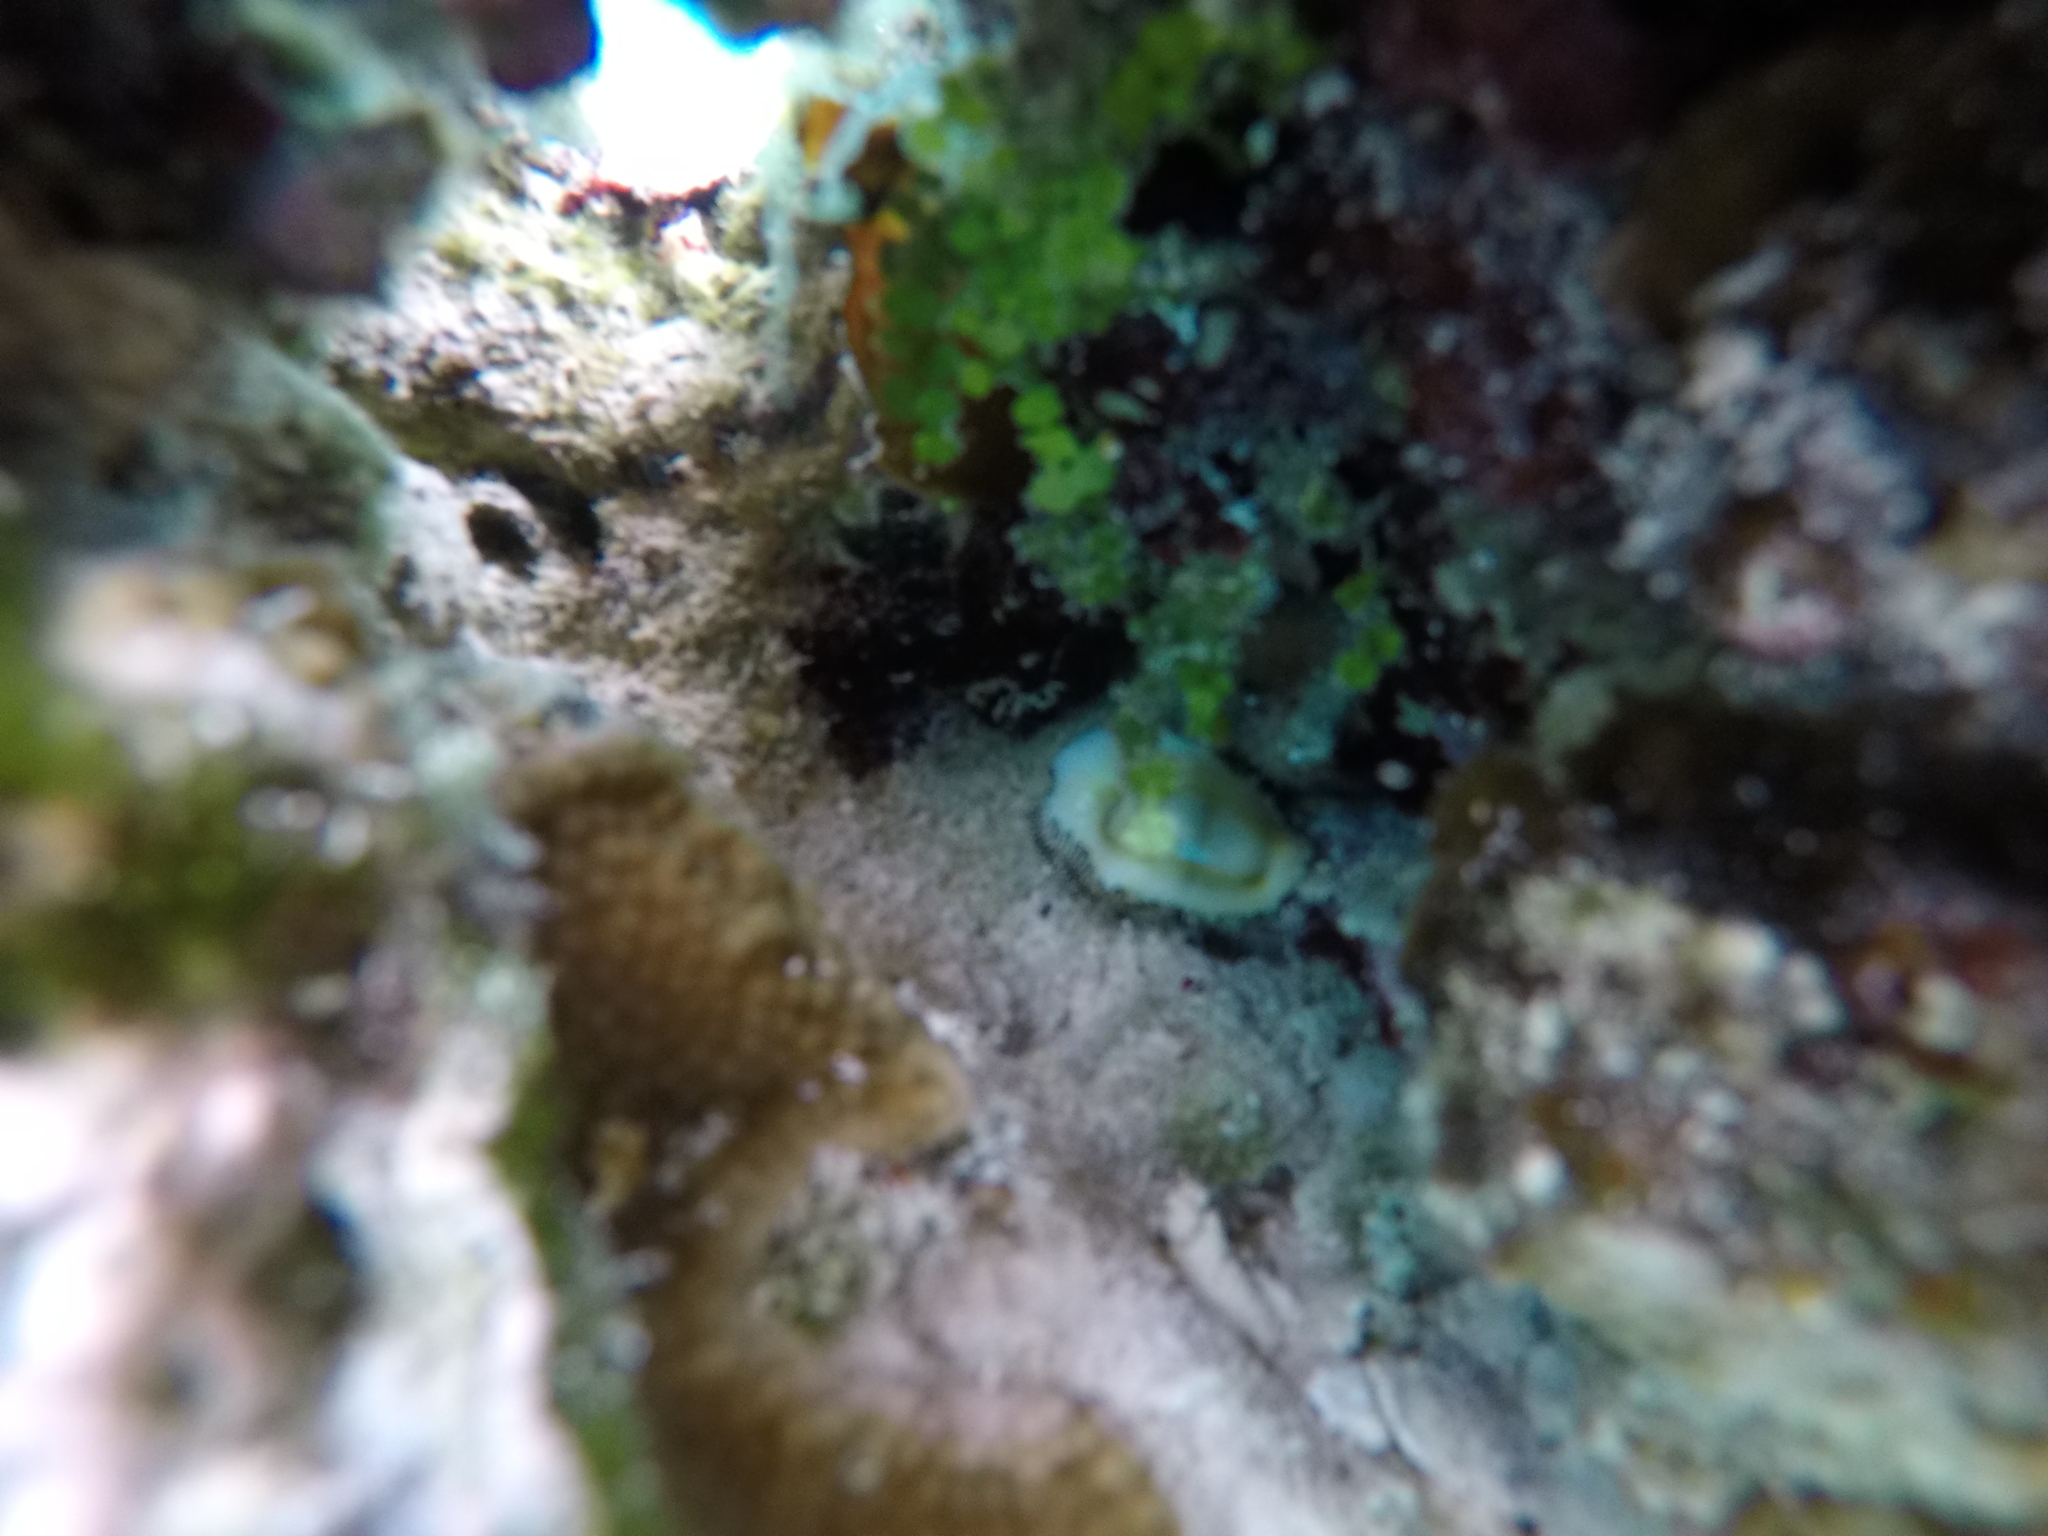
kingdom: Animalia
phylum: Mollusca
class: Gastropoda
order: Littorinimorpha
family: Cypraeidae
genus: Monetaria
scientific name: Monetaria moneta
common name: Money cowrie
